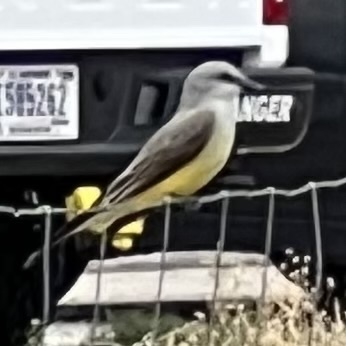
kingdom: Animalia
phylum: Chordata
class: Aves
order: Passeriformes
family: Tyrannidae
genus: Tyrannus
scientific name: Tyrannus verticalis
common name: Western kingbird
